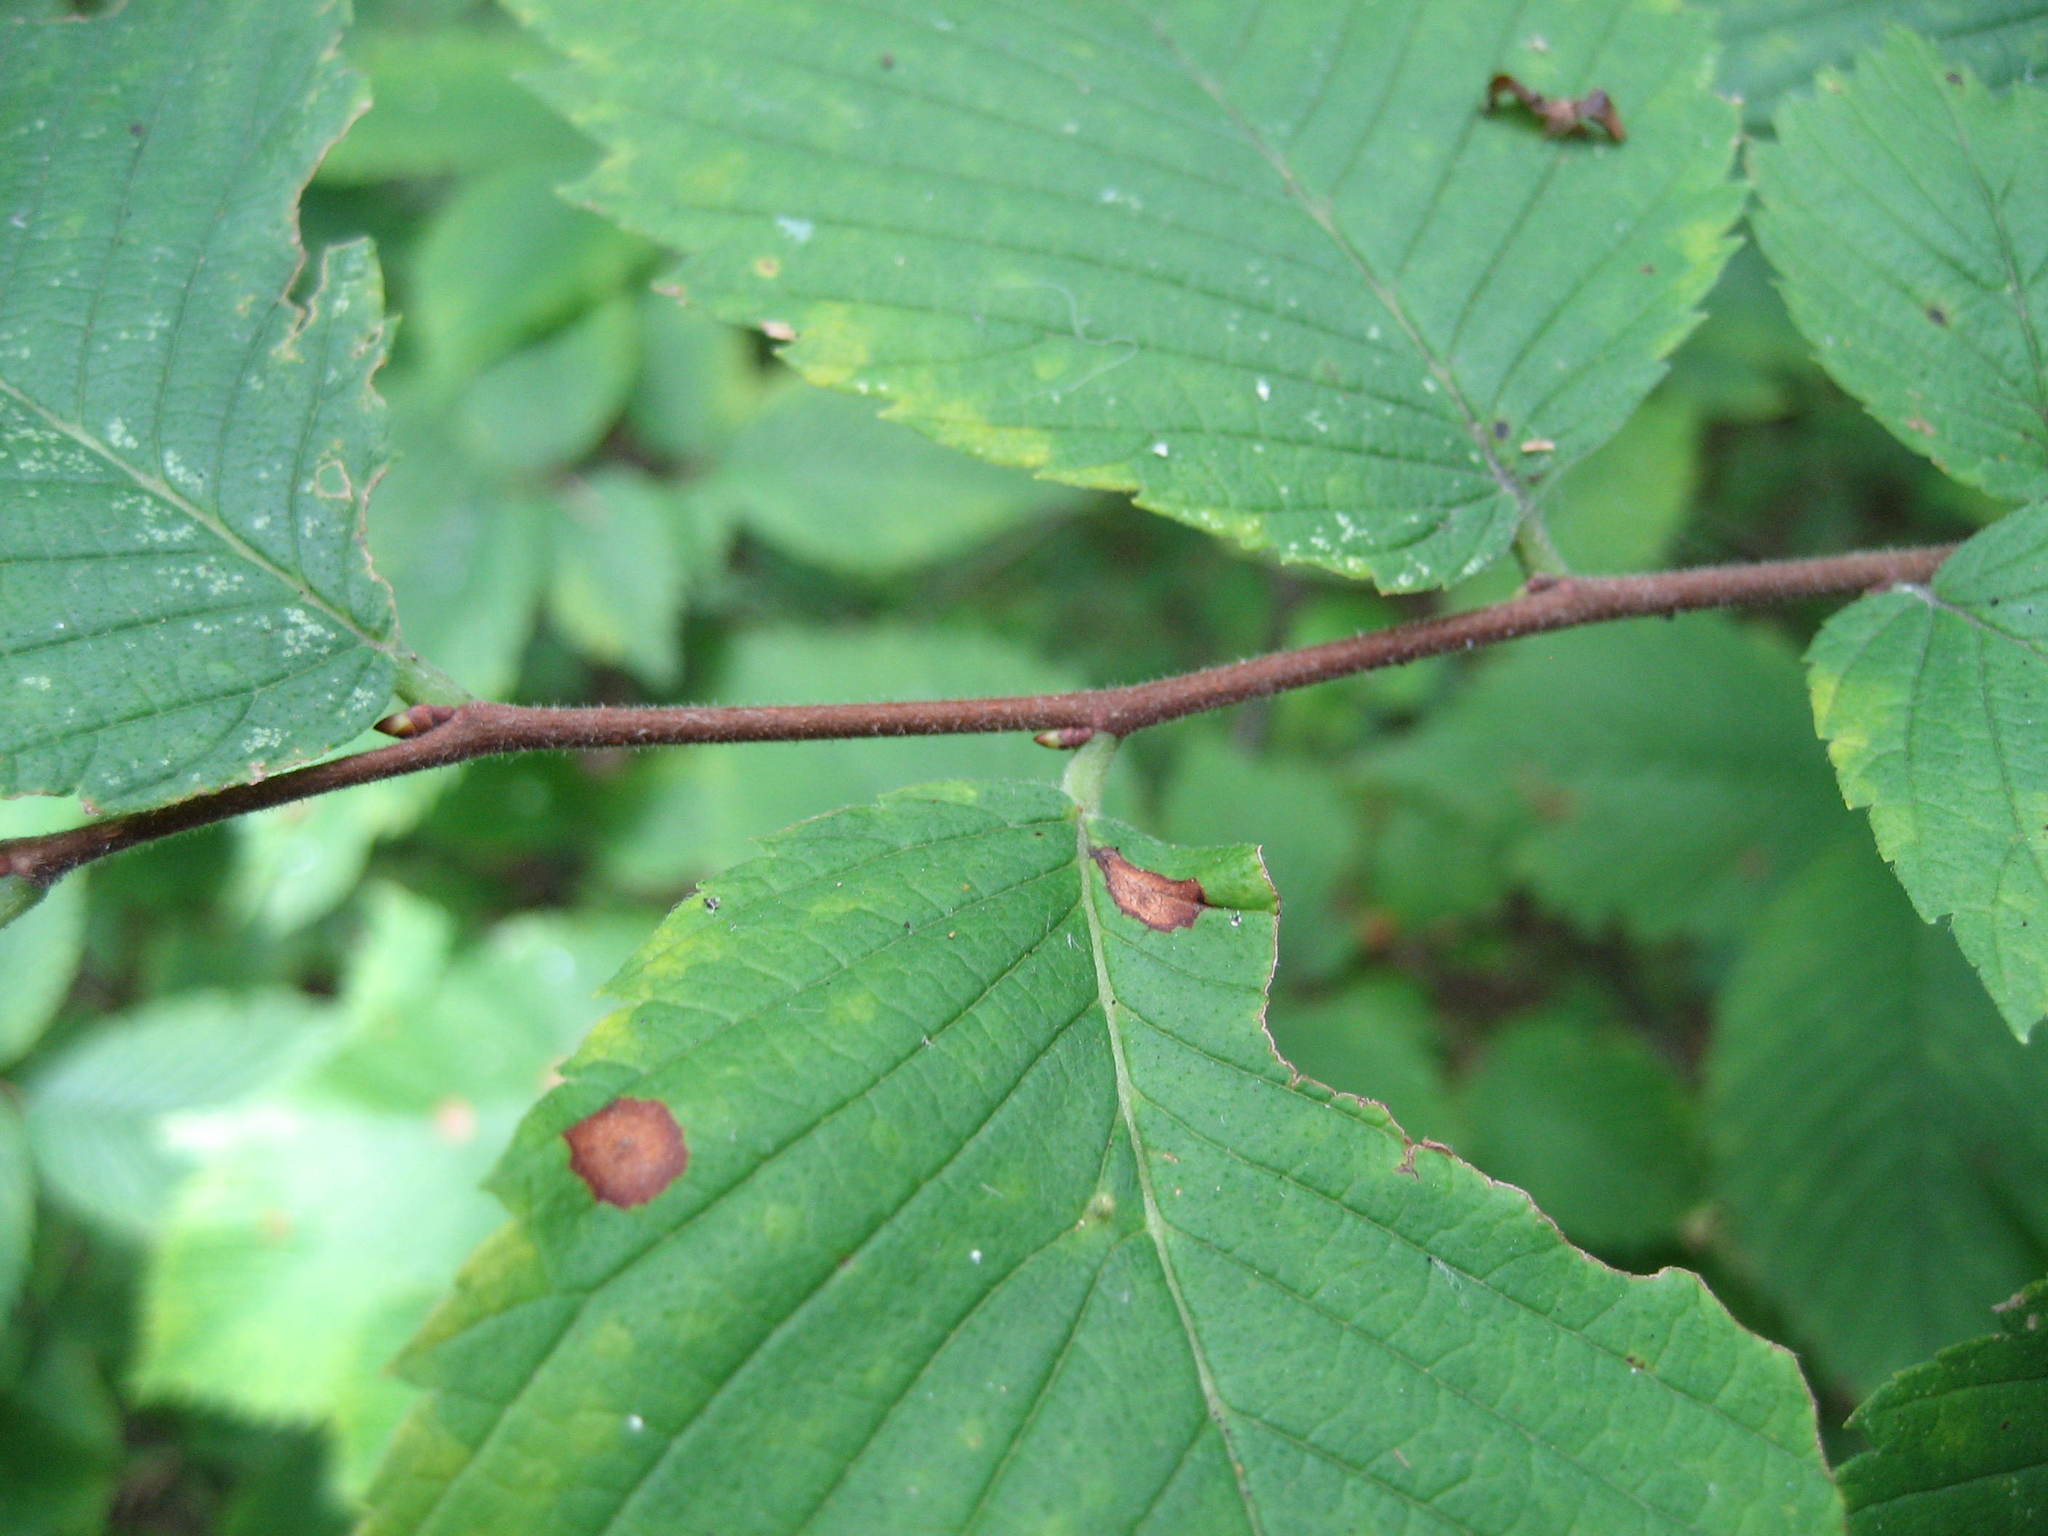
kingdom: Plantae
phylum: Tracheophyta
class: Magnoliopsida
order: Rosales
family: Ulmaceae
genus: Ulmus
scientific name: Ulmus americana
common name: American elm
